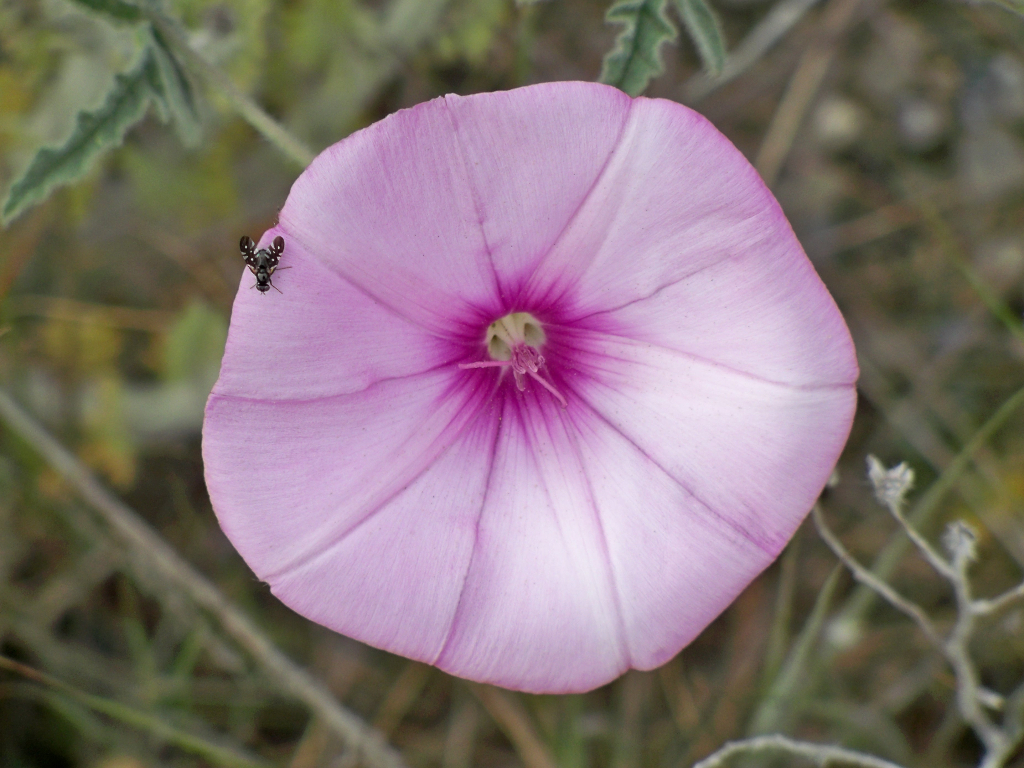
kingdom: Plantae
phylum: Tracheophyta
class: Magnoliopsida
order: Solanales
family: Convolvulaceae
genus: Convolvulus
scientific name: Convolvulus althaeoides
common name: Mallow bindweed
